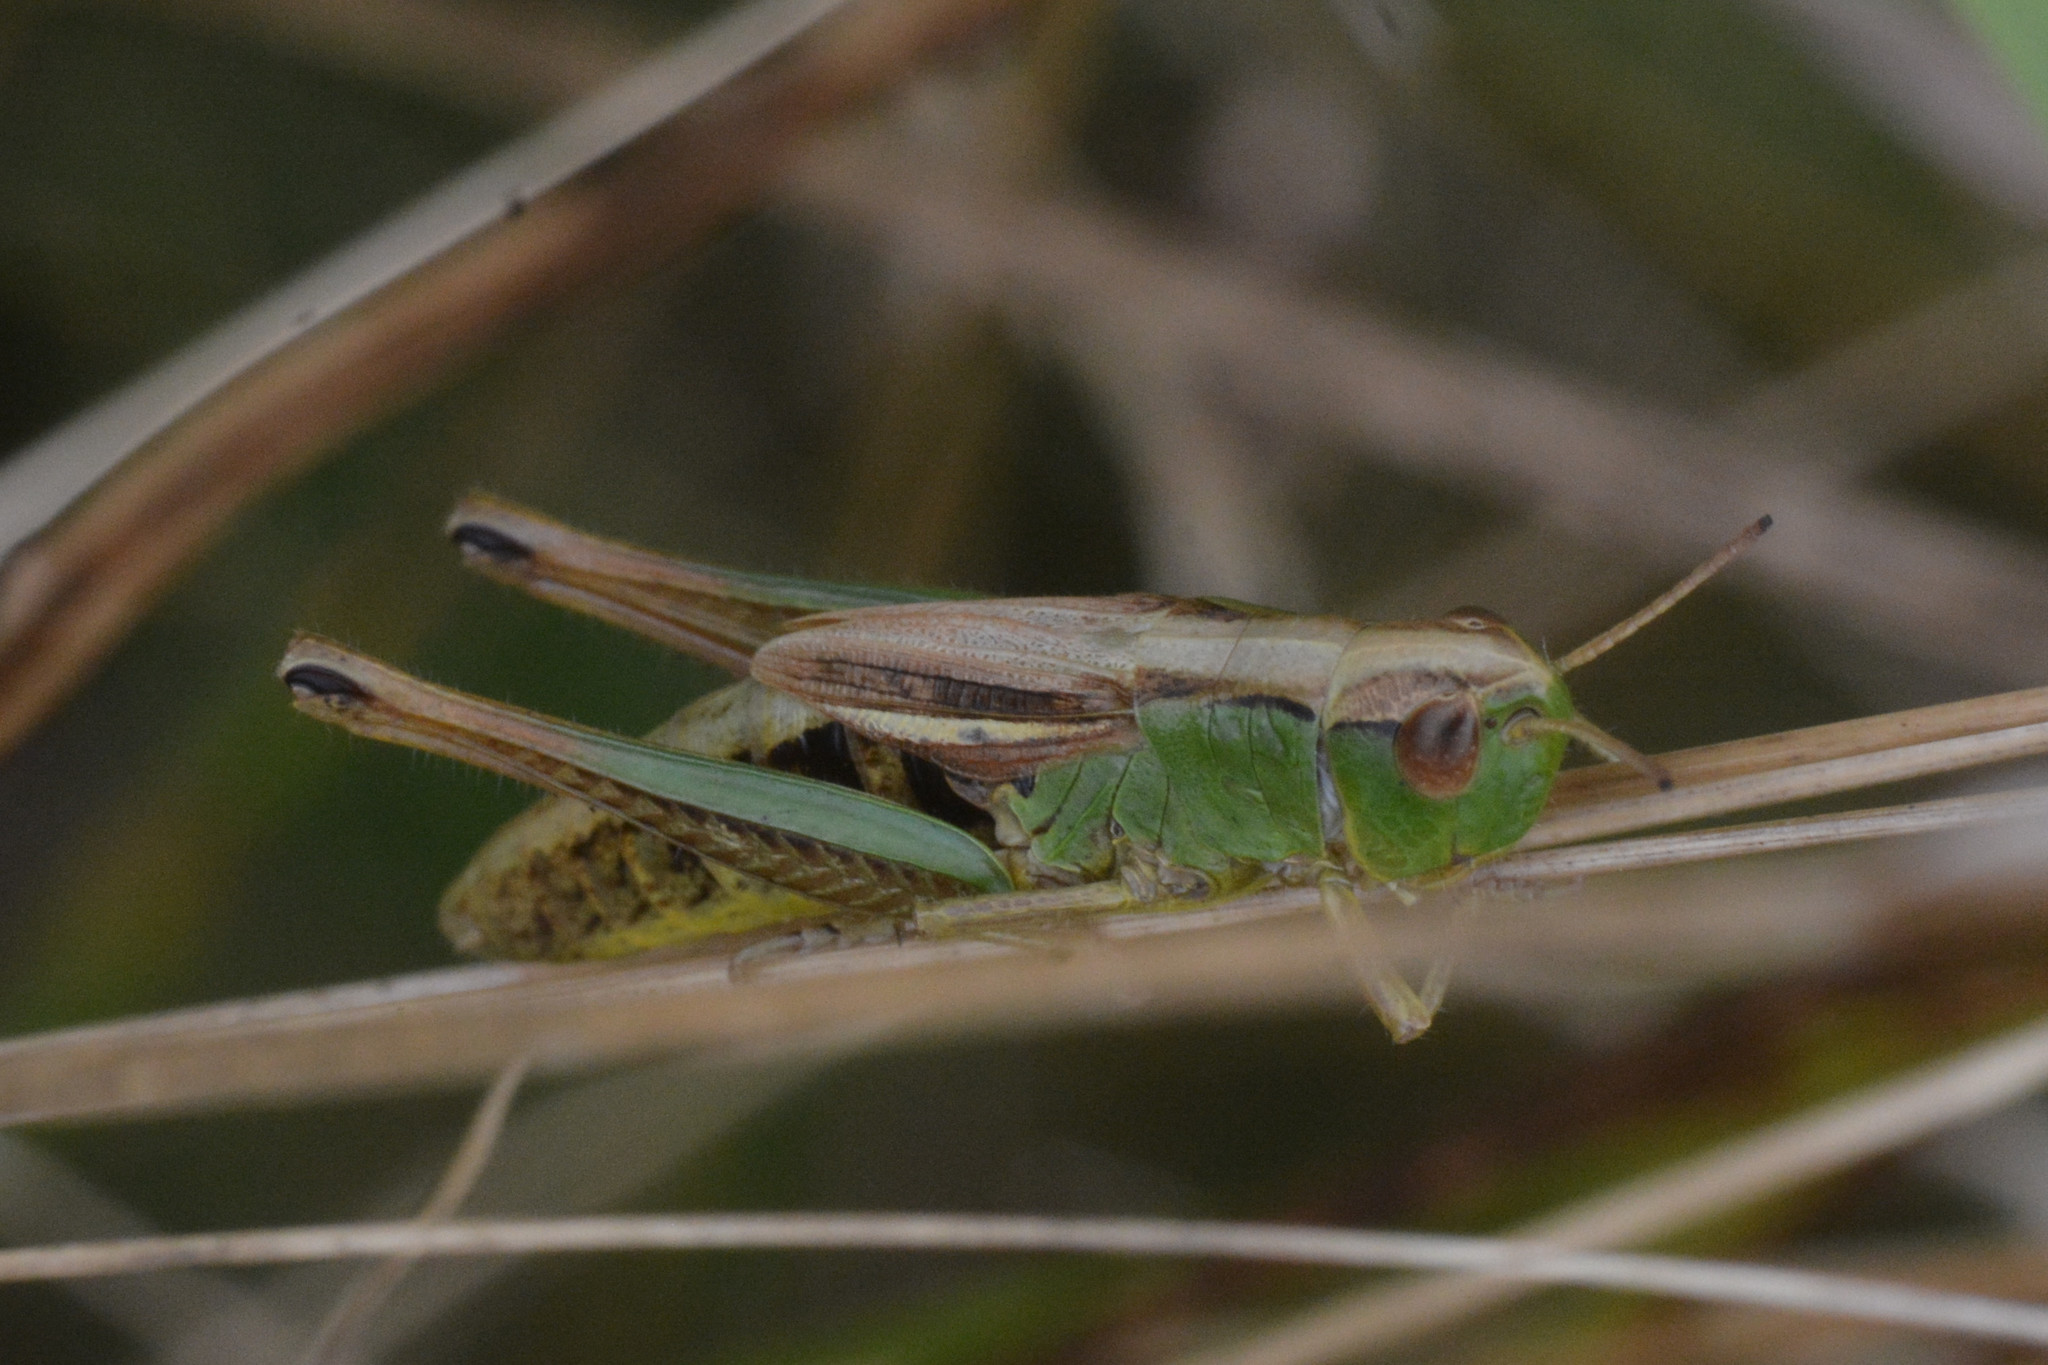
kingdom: Animalia
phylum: Arthropoda
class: Insecta
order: Orthoptera
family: Acrididae
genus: Pseudochorthippus
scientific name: Pseudochorthippus parallelus
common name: Meadow grasshopper
